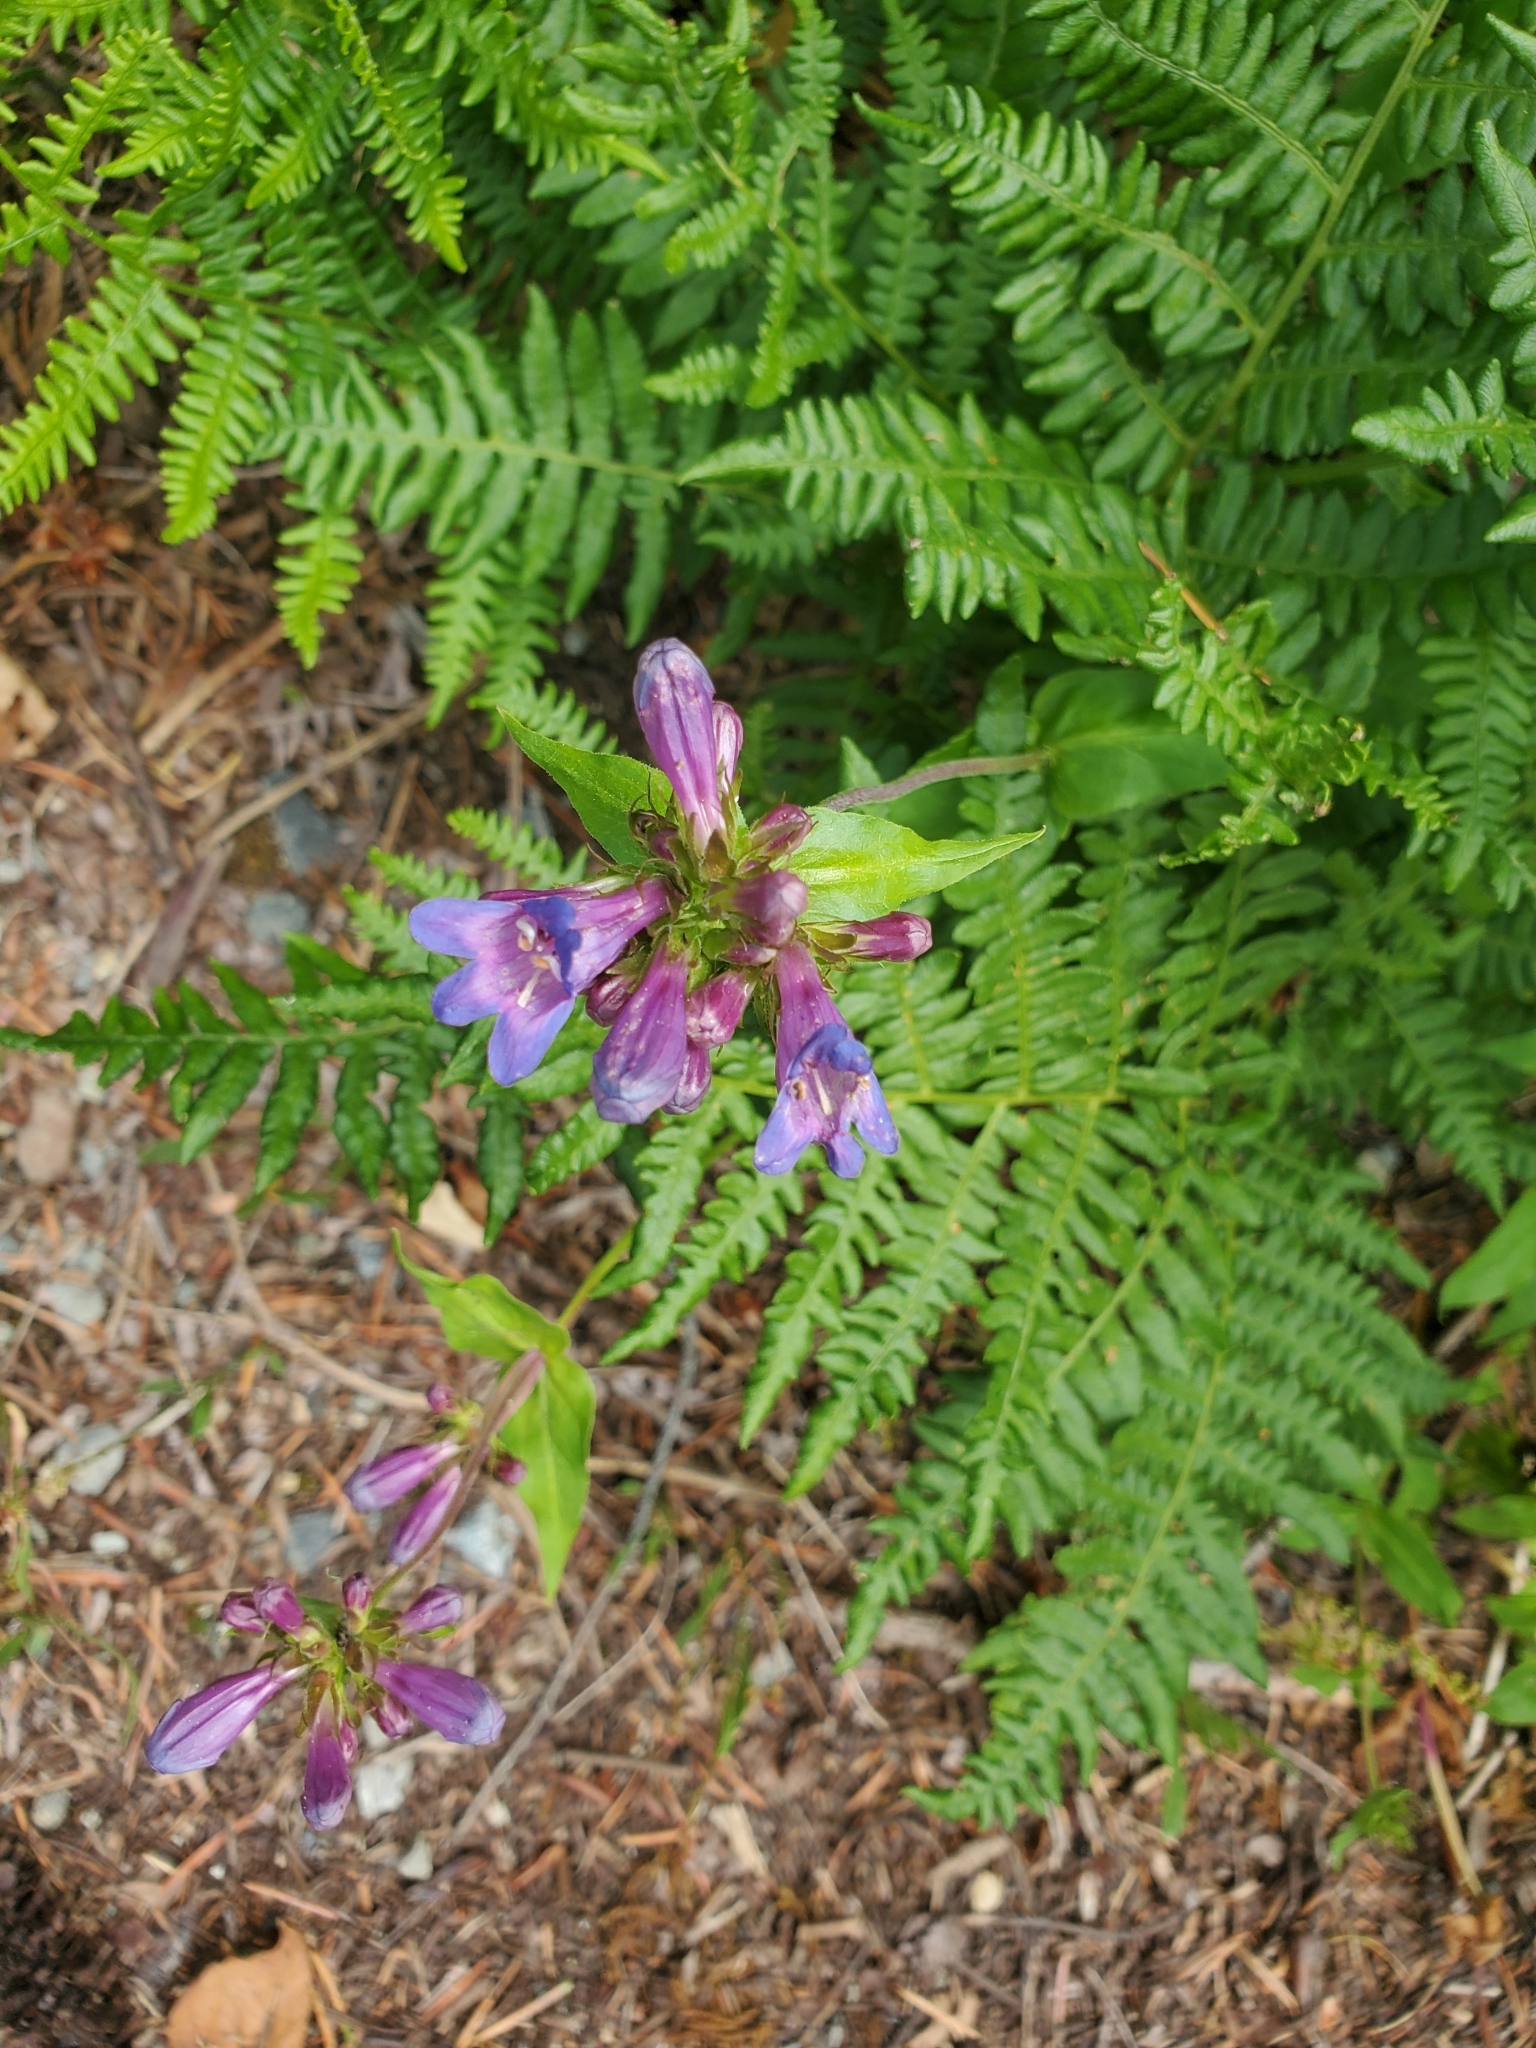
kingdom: Plantae
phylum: Tracheophyta
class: Magnoliopsida
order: Lamiales
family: Plantaginaceae
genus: Penstemon
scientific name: Penstemon serrulatus
